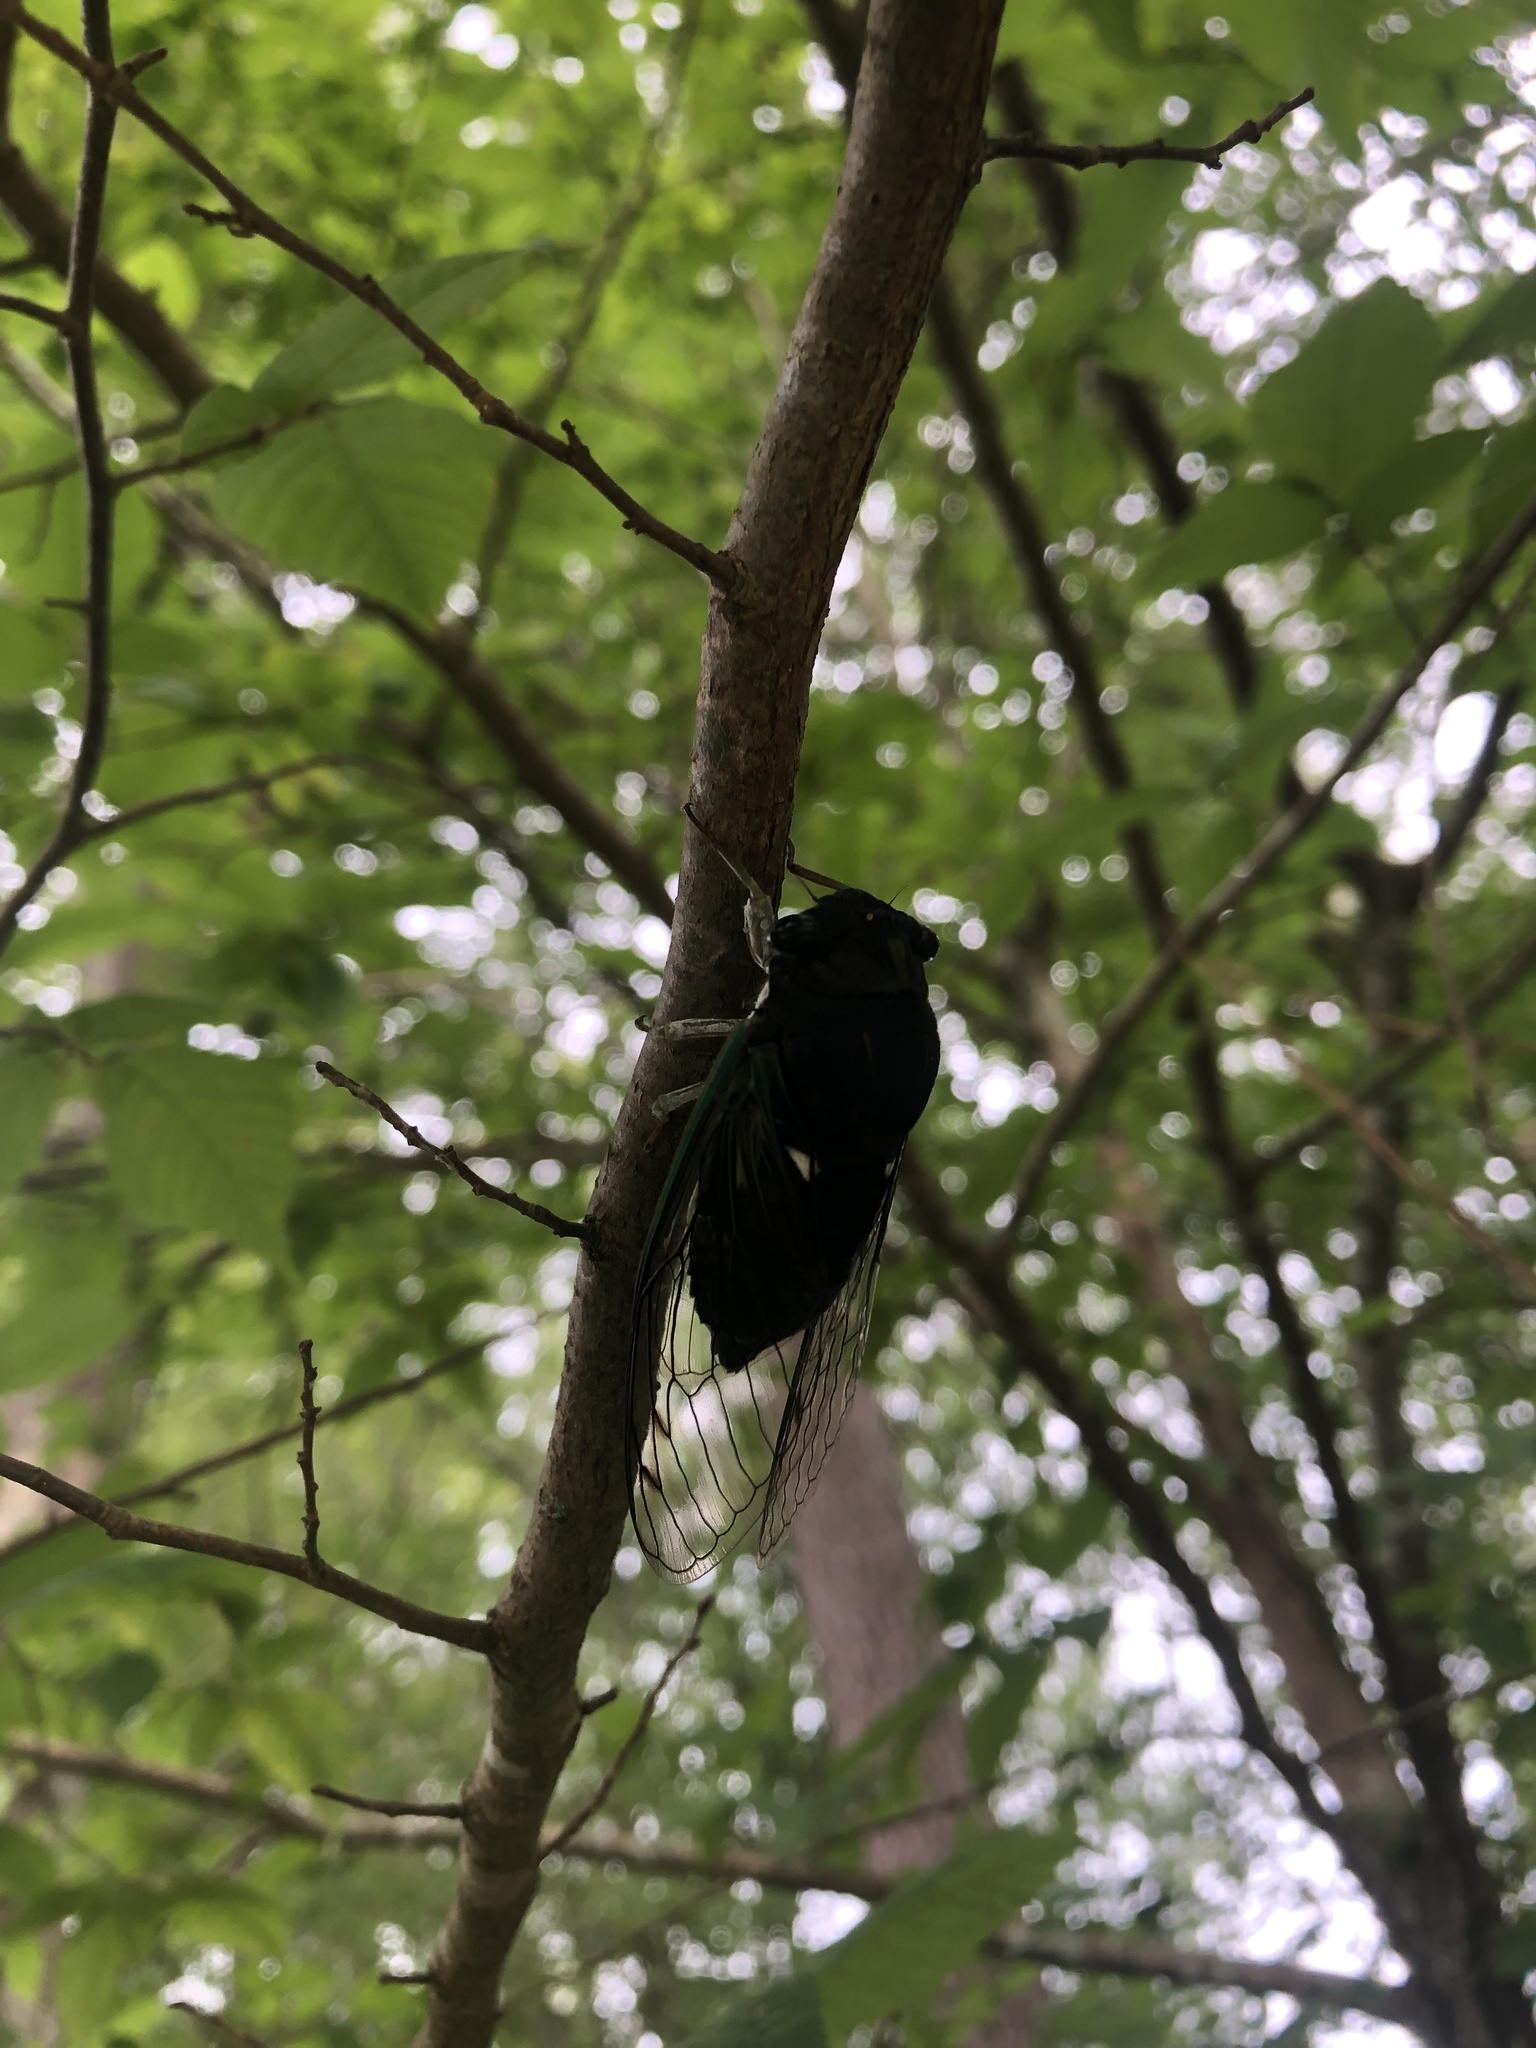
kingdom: Animalia
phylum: Arthropoda
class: Insecta
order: Hemiptera
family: Cicadidae
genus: Neotibicen
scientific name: Neotibicen tibicen
